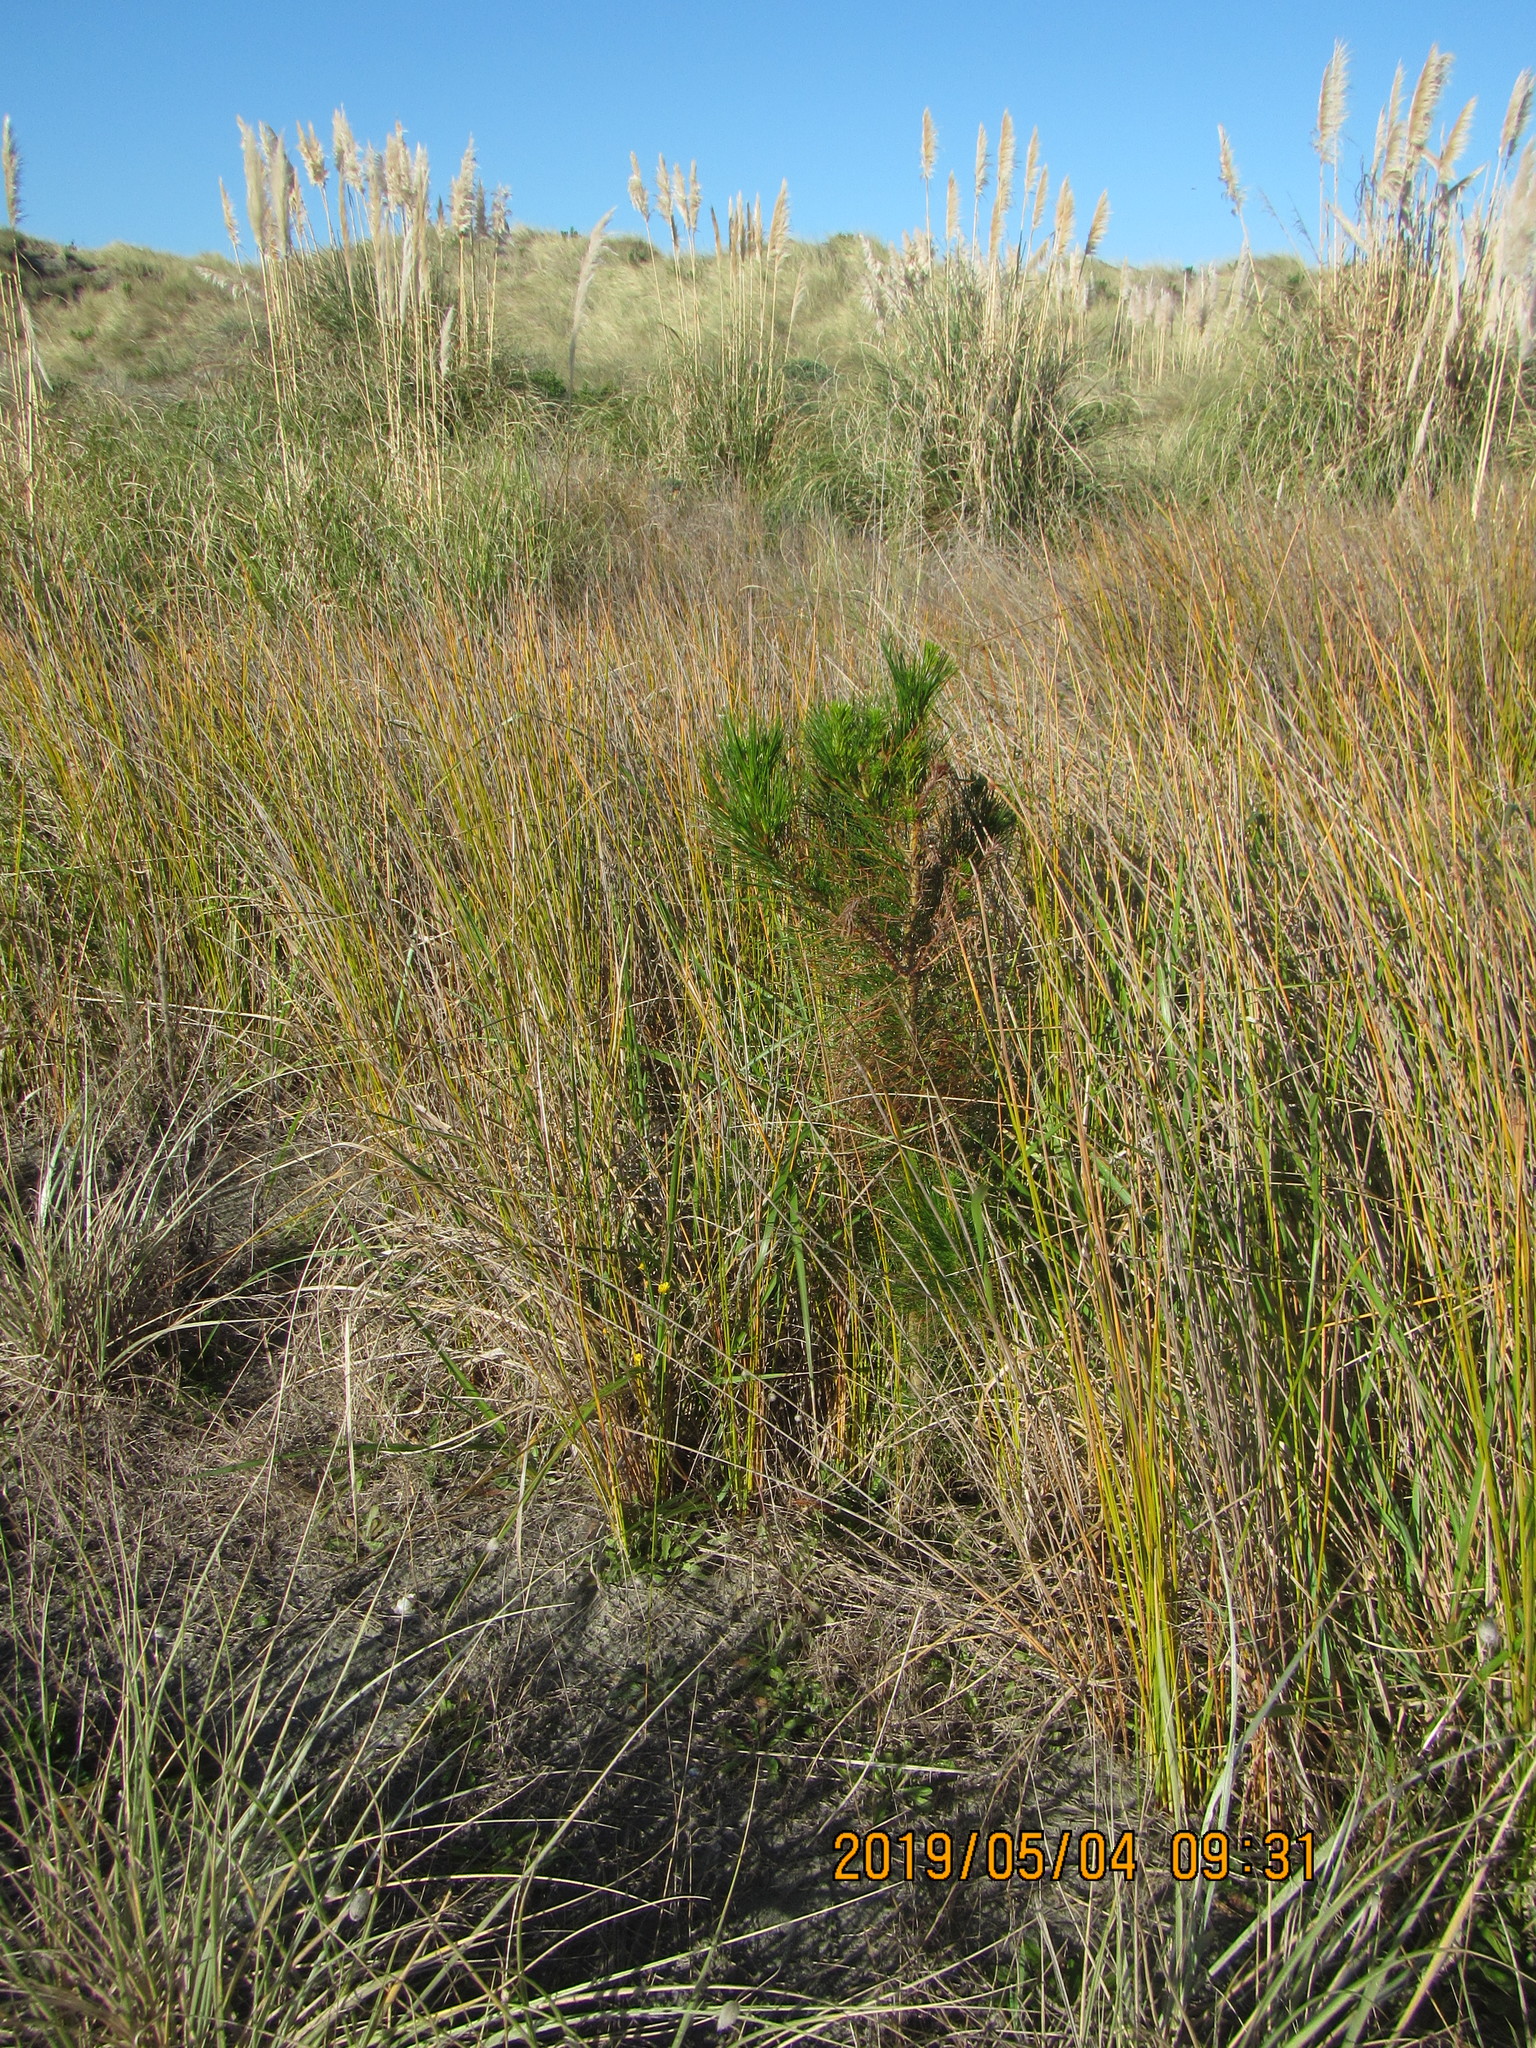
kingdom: Plantae
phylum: Tracheophyta
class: Pinopsida
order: Pinales
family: Pinaceae
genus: Pinus
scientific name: Pinus radiata
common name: Monterey pine
